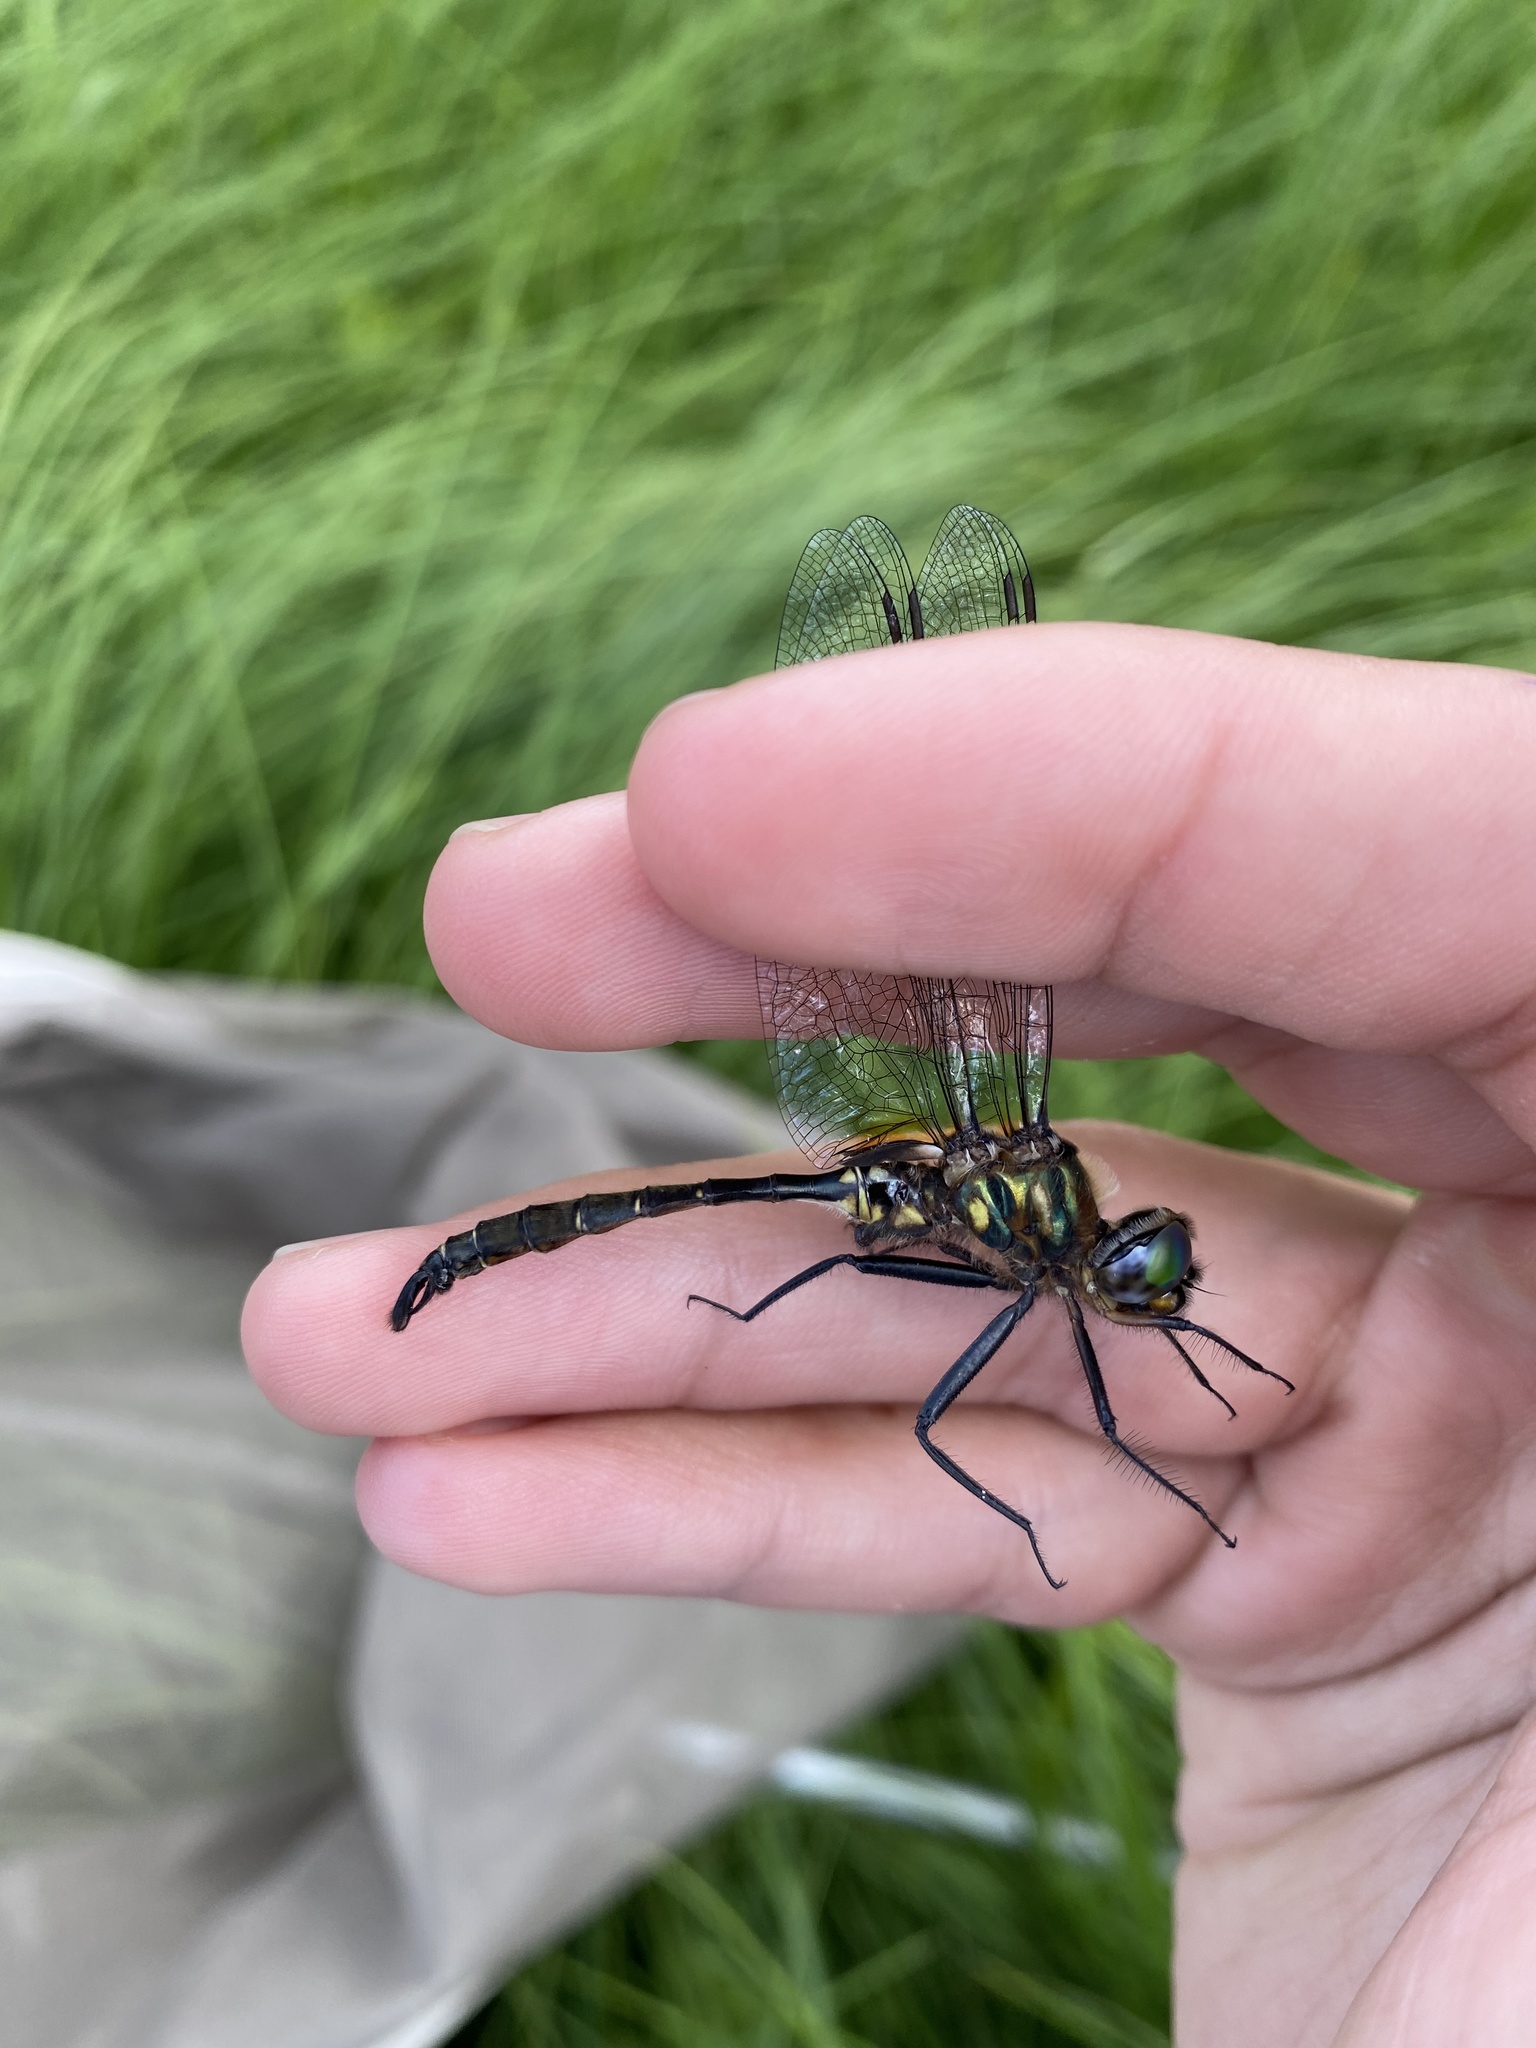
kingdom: Animalia
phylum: Arthropoda
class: Insecta
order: Odonata
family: Corduliidae
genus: Somatochlora
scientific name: Somatochlora walshii
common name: Brush-tipped emerald
